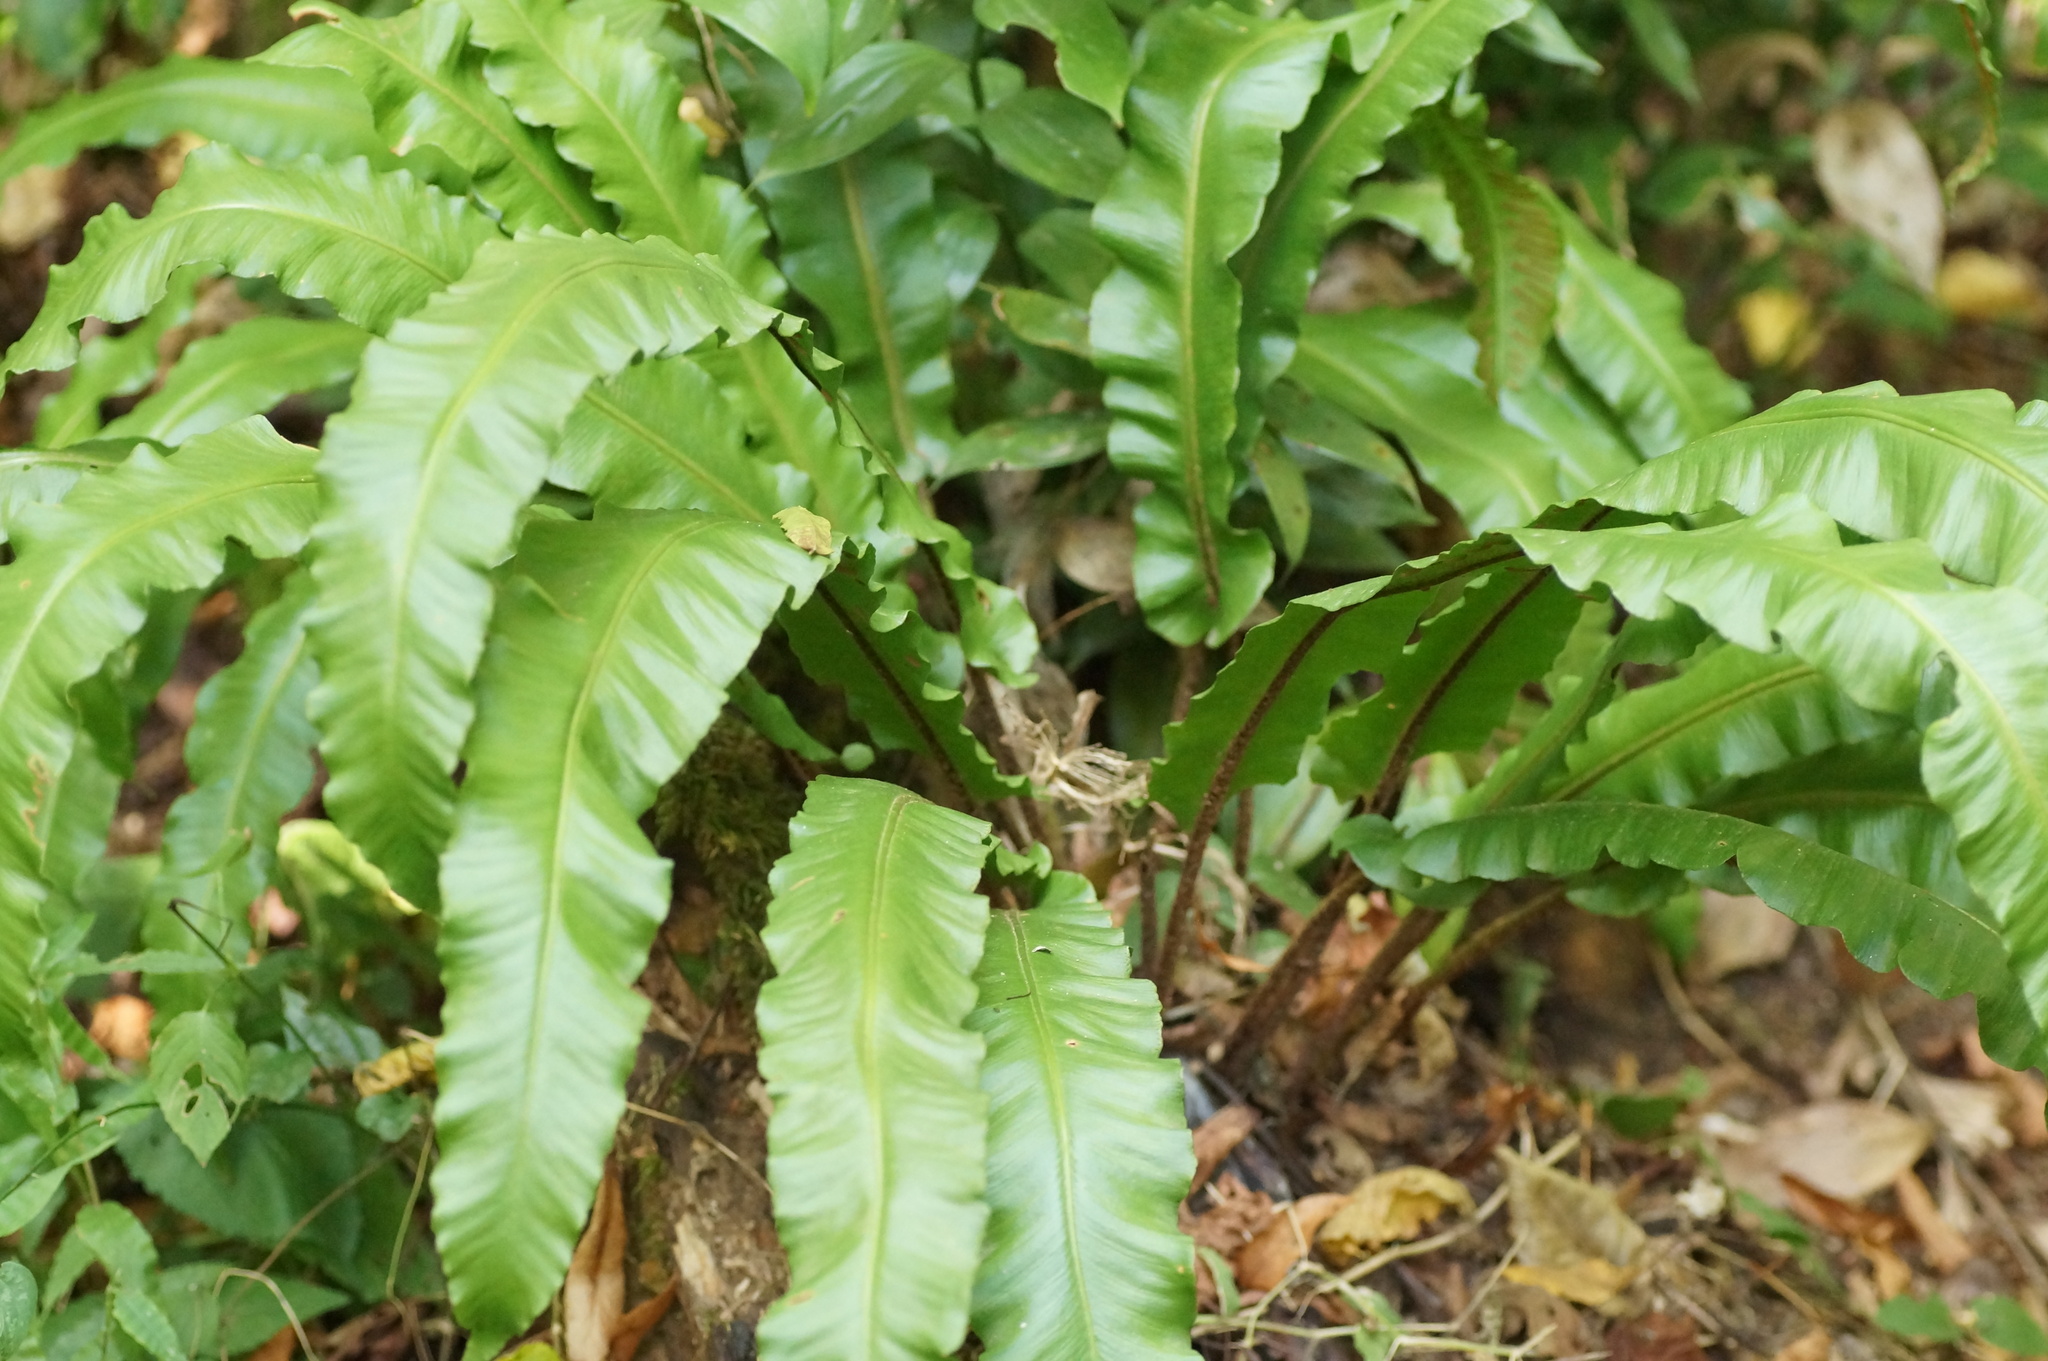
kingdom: Plantae
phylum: Tracheophyta
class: Polypodiopsida
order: Polypodiales
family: Aspleniaceae
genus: Asplenium
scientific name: Asplenium scolopendrium
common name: Hart's-tongue fern
